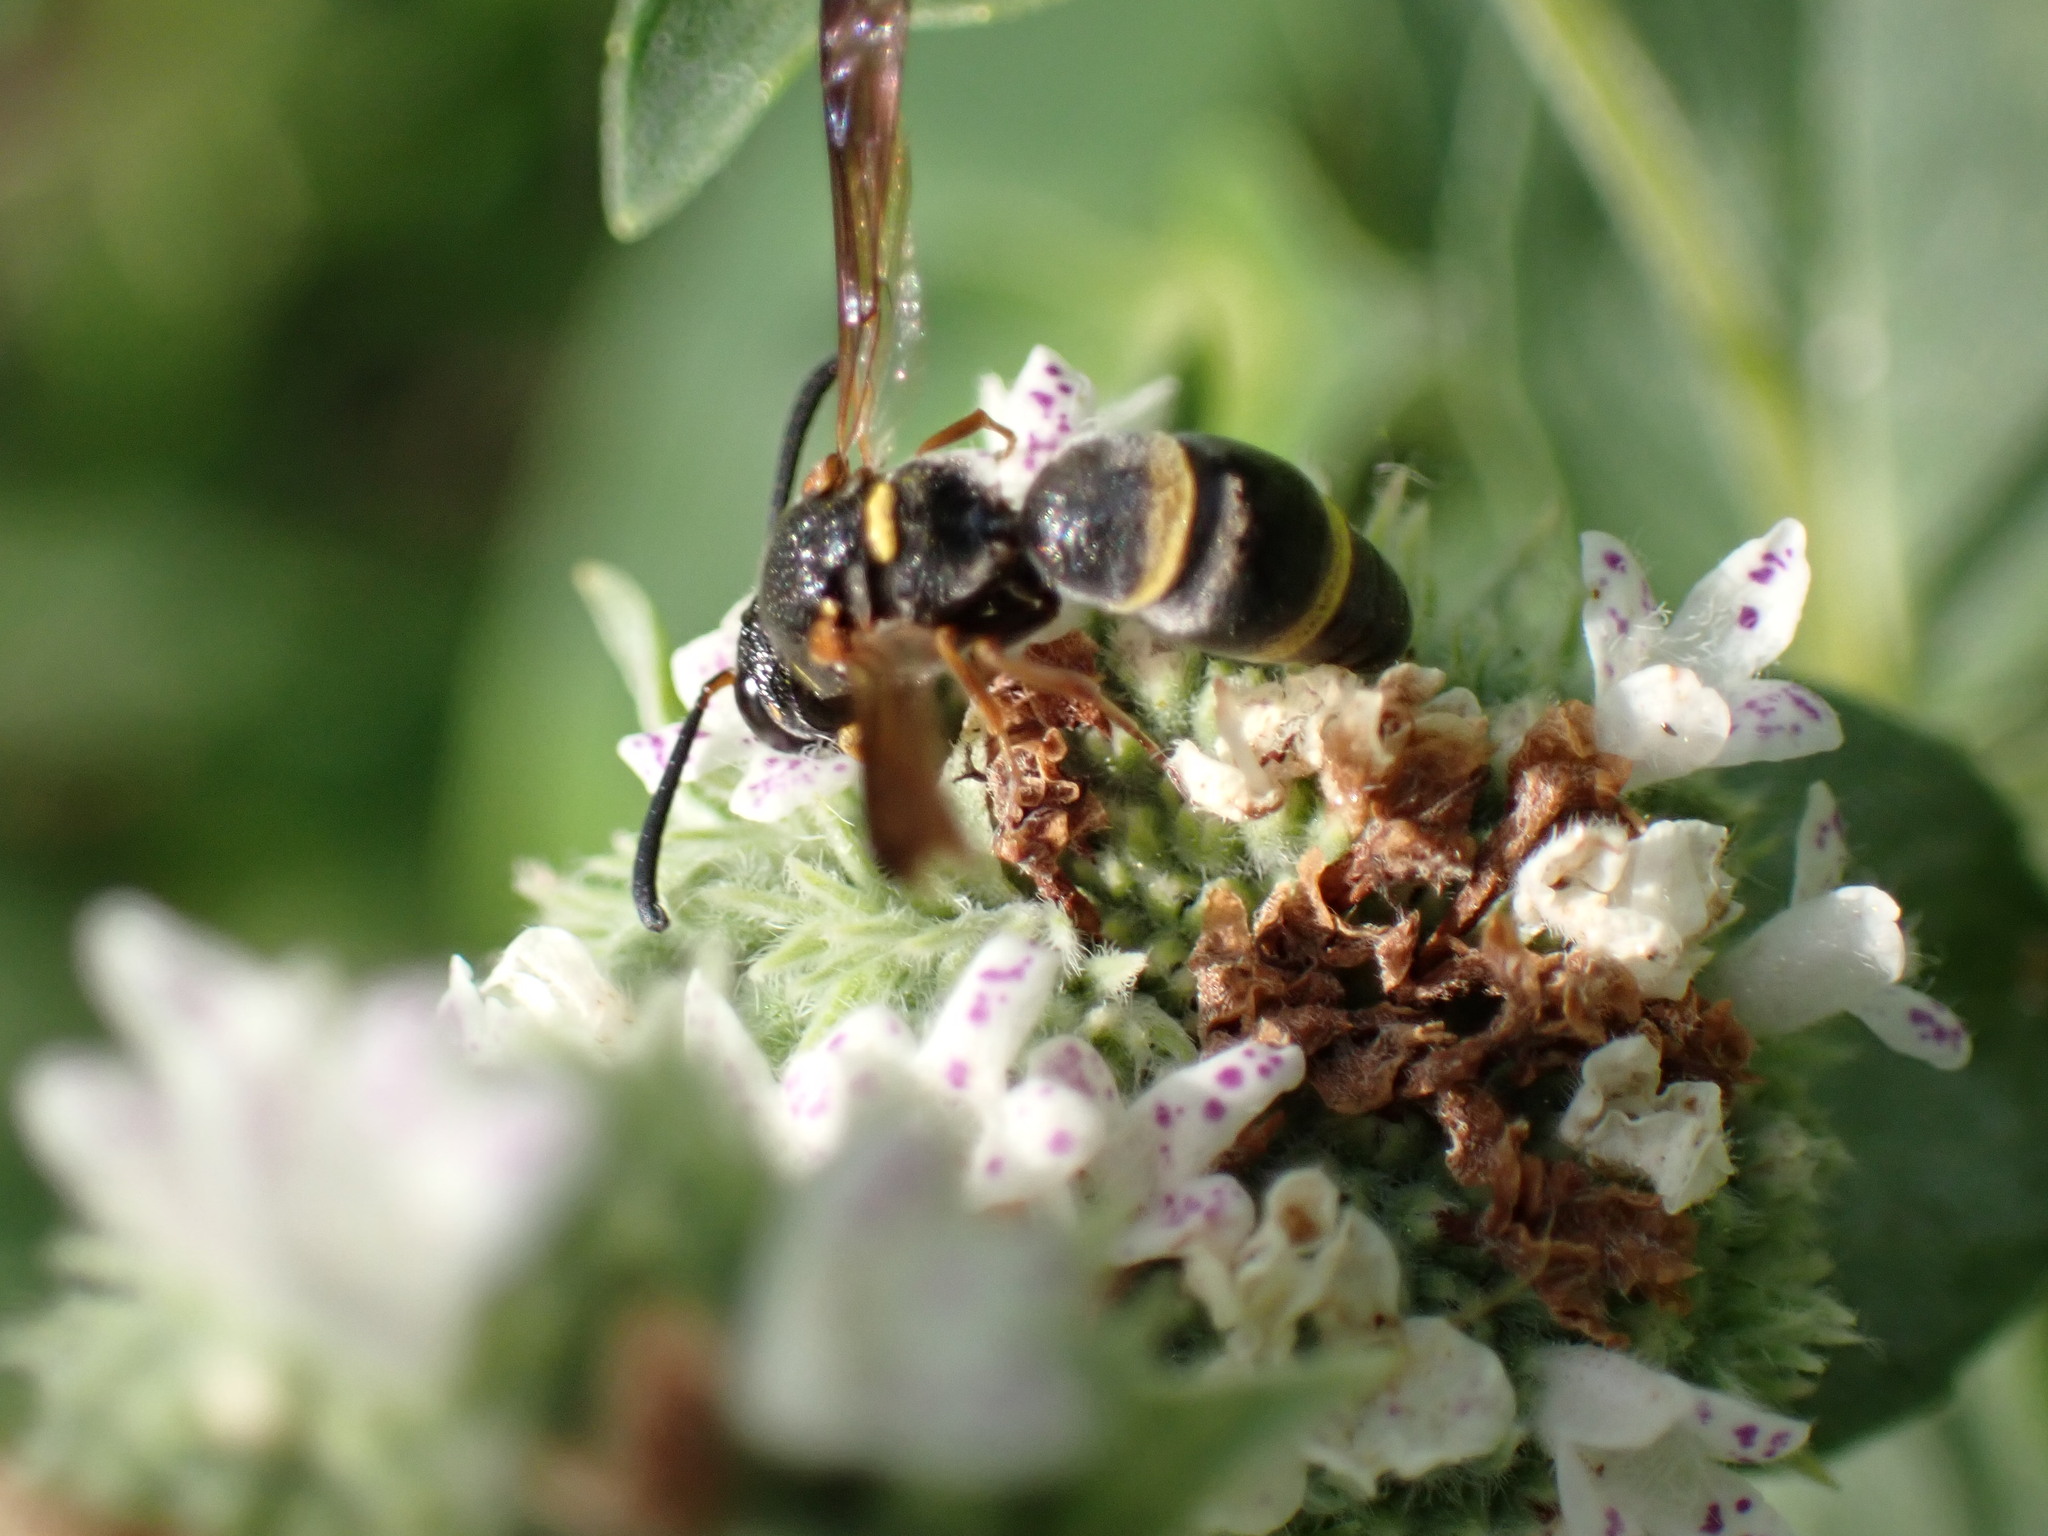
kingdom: Animalia
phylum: Arthropoda
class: Insecta
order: Hymenoptera
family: Eumenidae
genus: Parancistrocerus
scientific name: Parancistrocerus perennis
